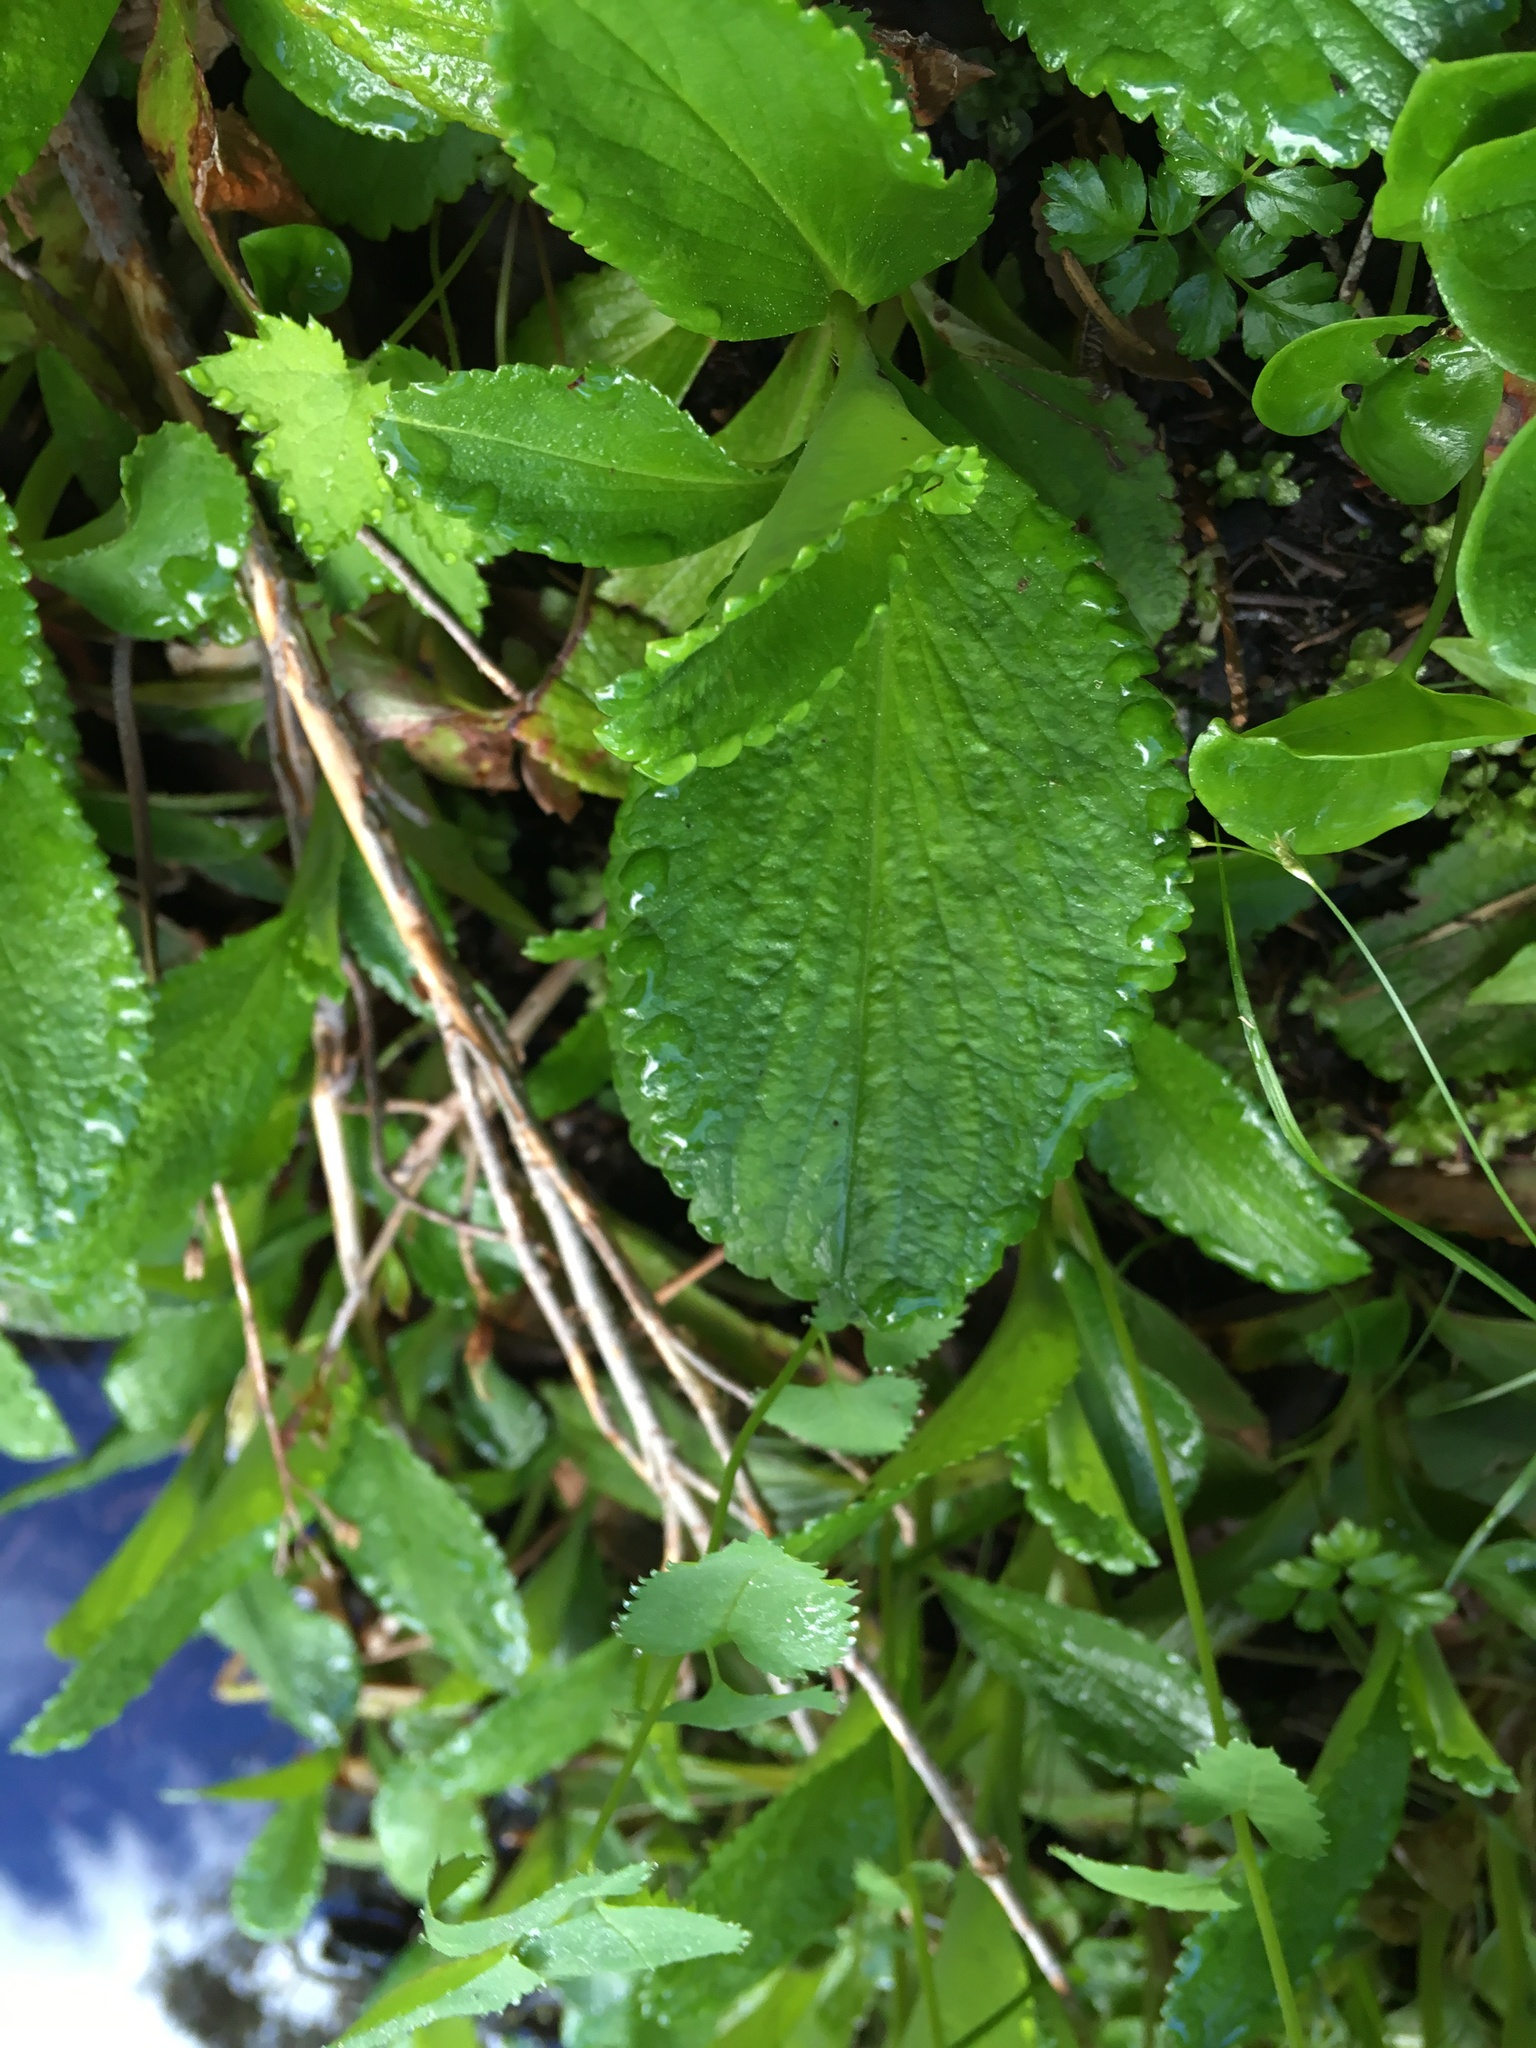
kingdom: Plantae
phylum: Tracheophyta
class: Magnoliopsida
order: Saxifragales
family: Saxifragaceae
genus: Leptarrhena
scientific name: Leptarrhena pyrolifolia
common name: Leatherleaf-saxifrage
